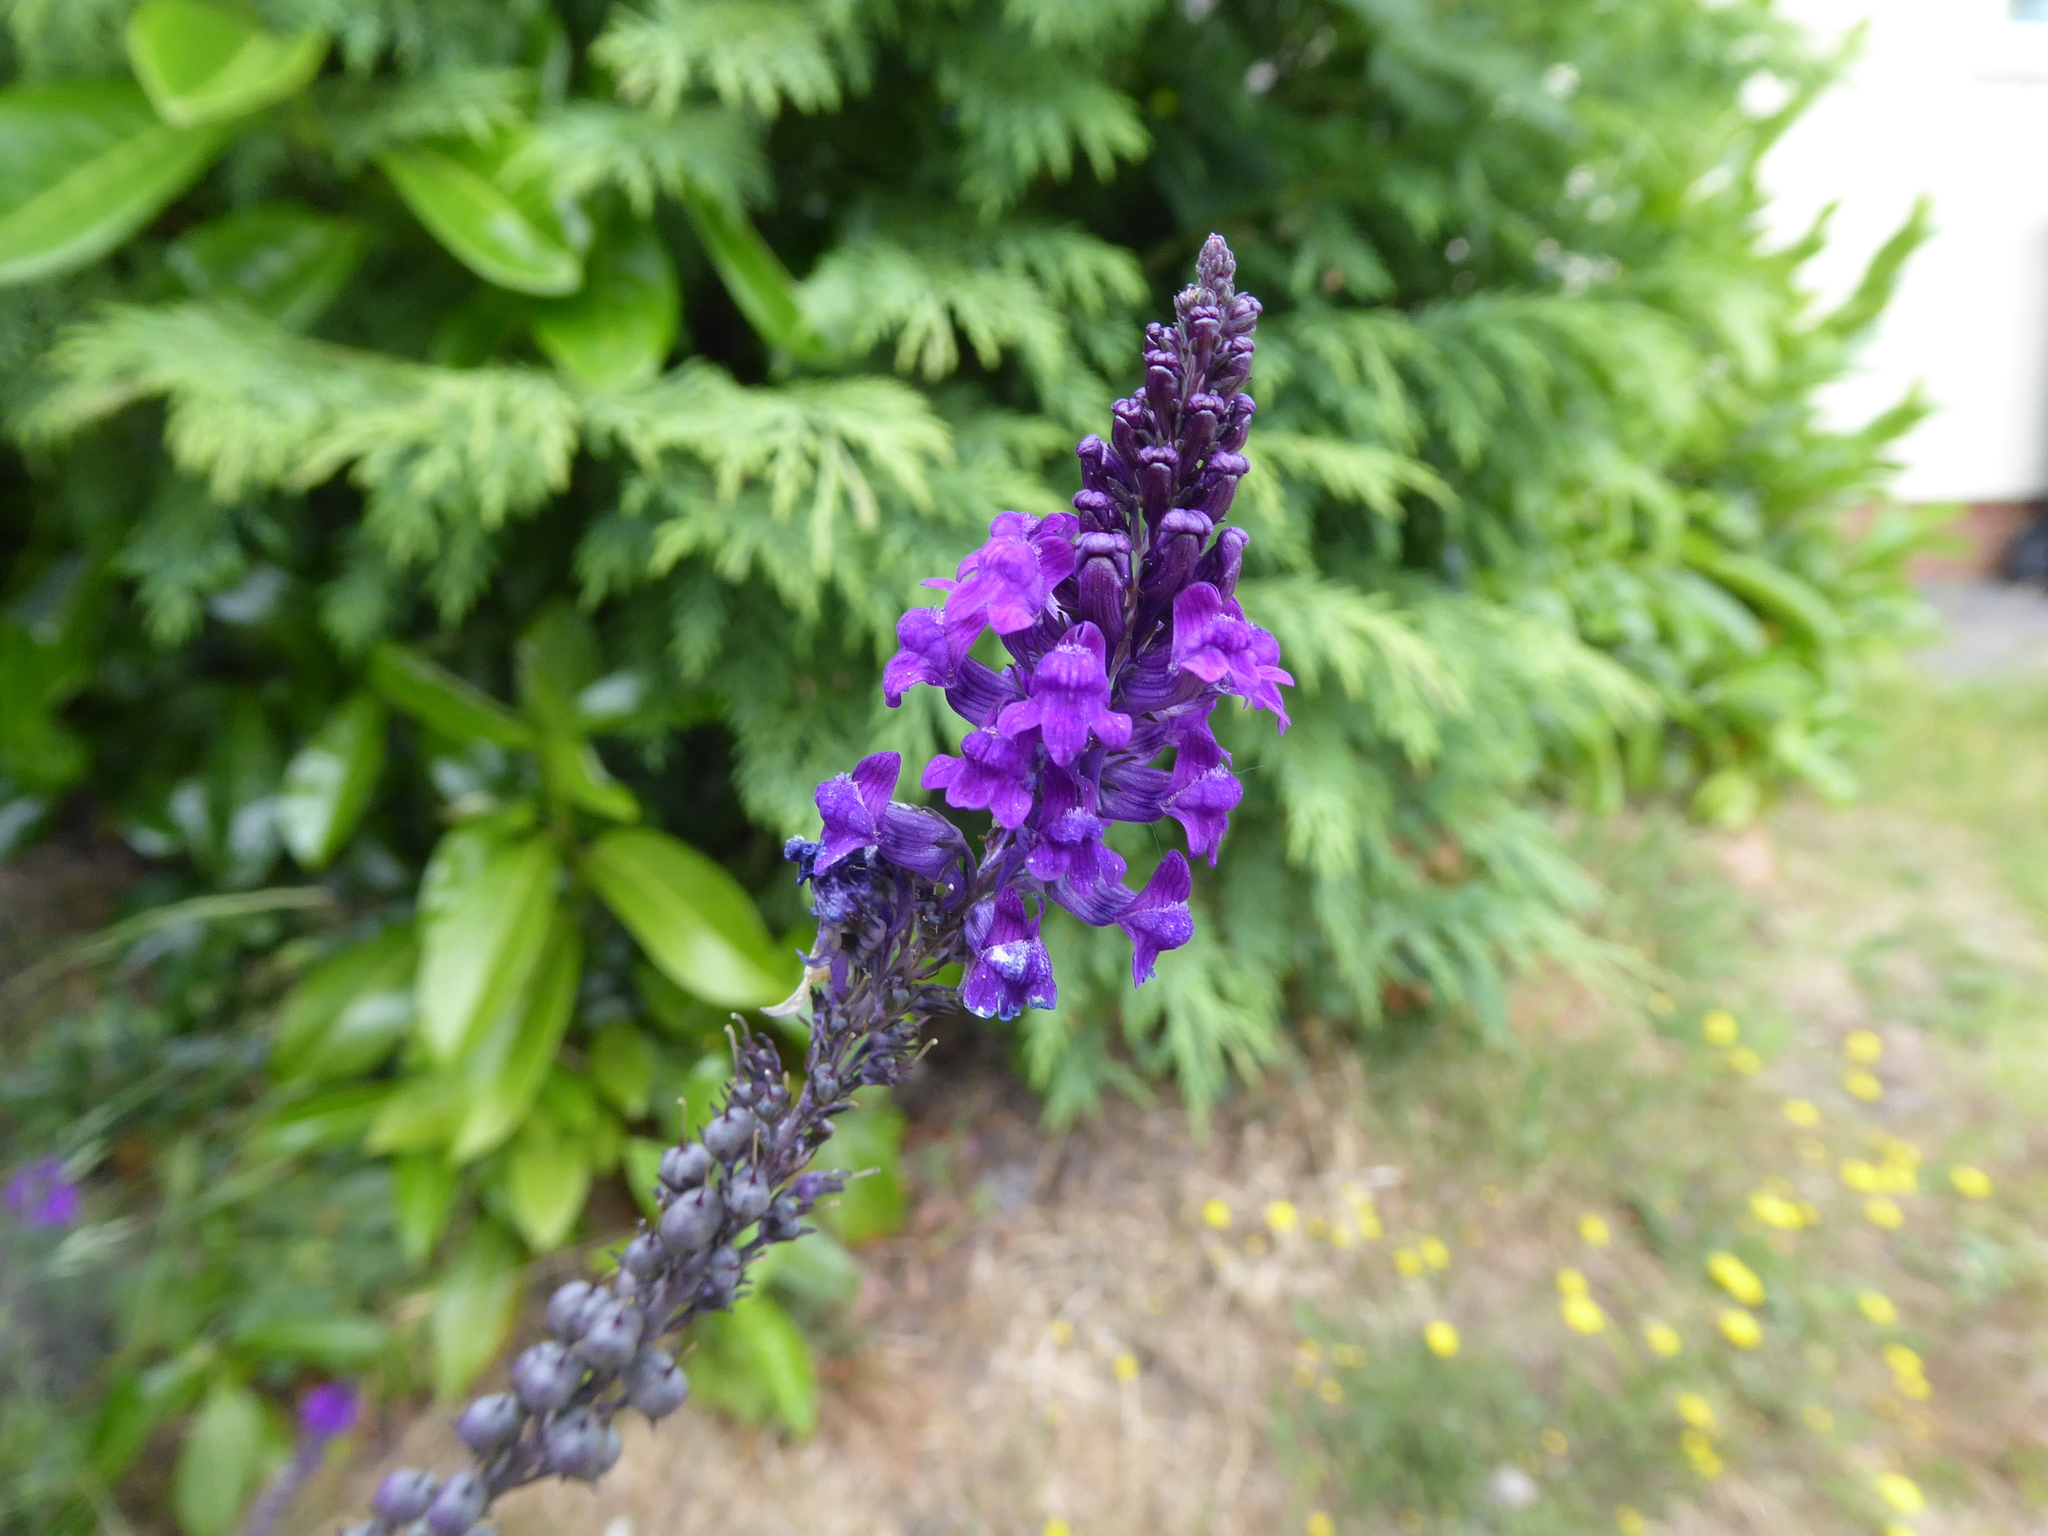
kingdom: Plantae
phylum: Tracheophyta
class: Magnoliopsida
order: Lamiales
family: Plantaginaceae
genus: Linaria
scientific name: Linaria purpurea
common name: Purple toadflax
